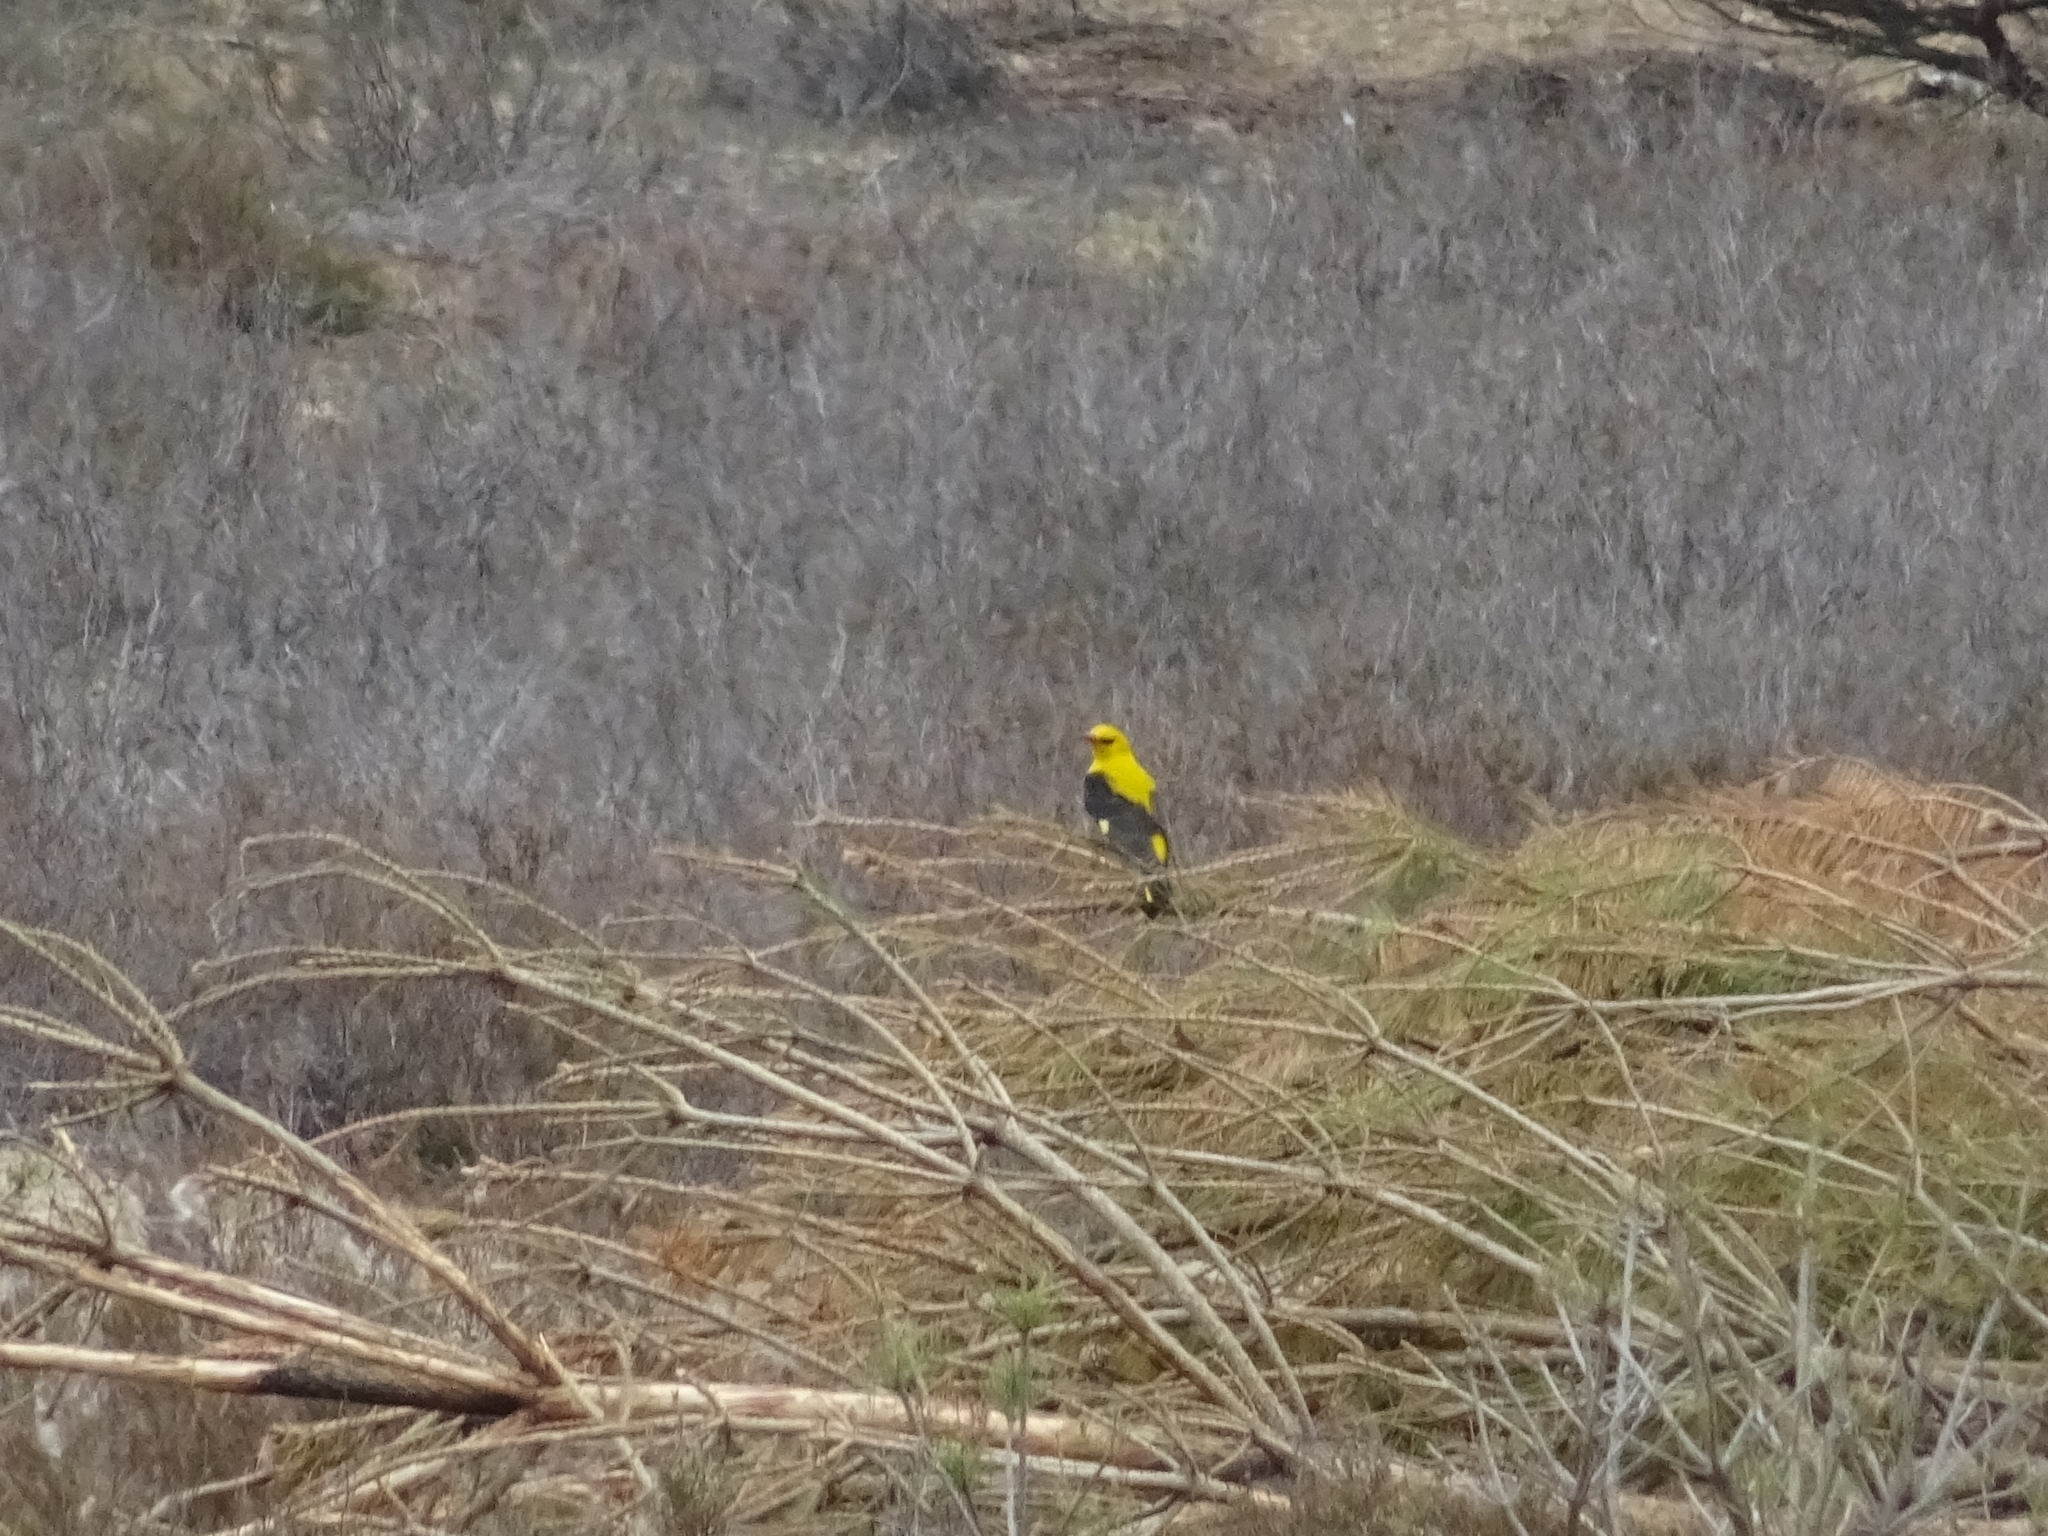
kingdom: Animalia
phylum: Chordata
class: Aves
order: Passeriformes
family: Oriolidae
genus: Oriolus
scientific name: Oriolus oriolus
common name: Eurasian golden oriole
